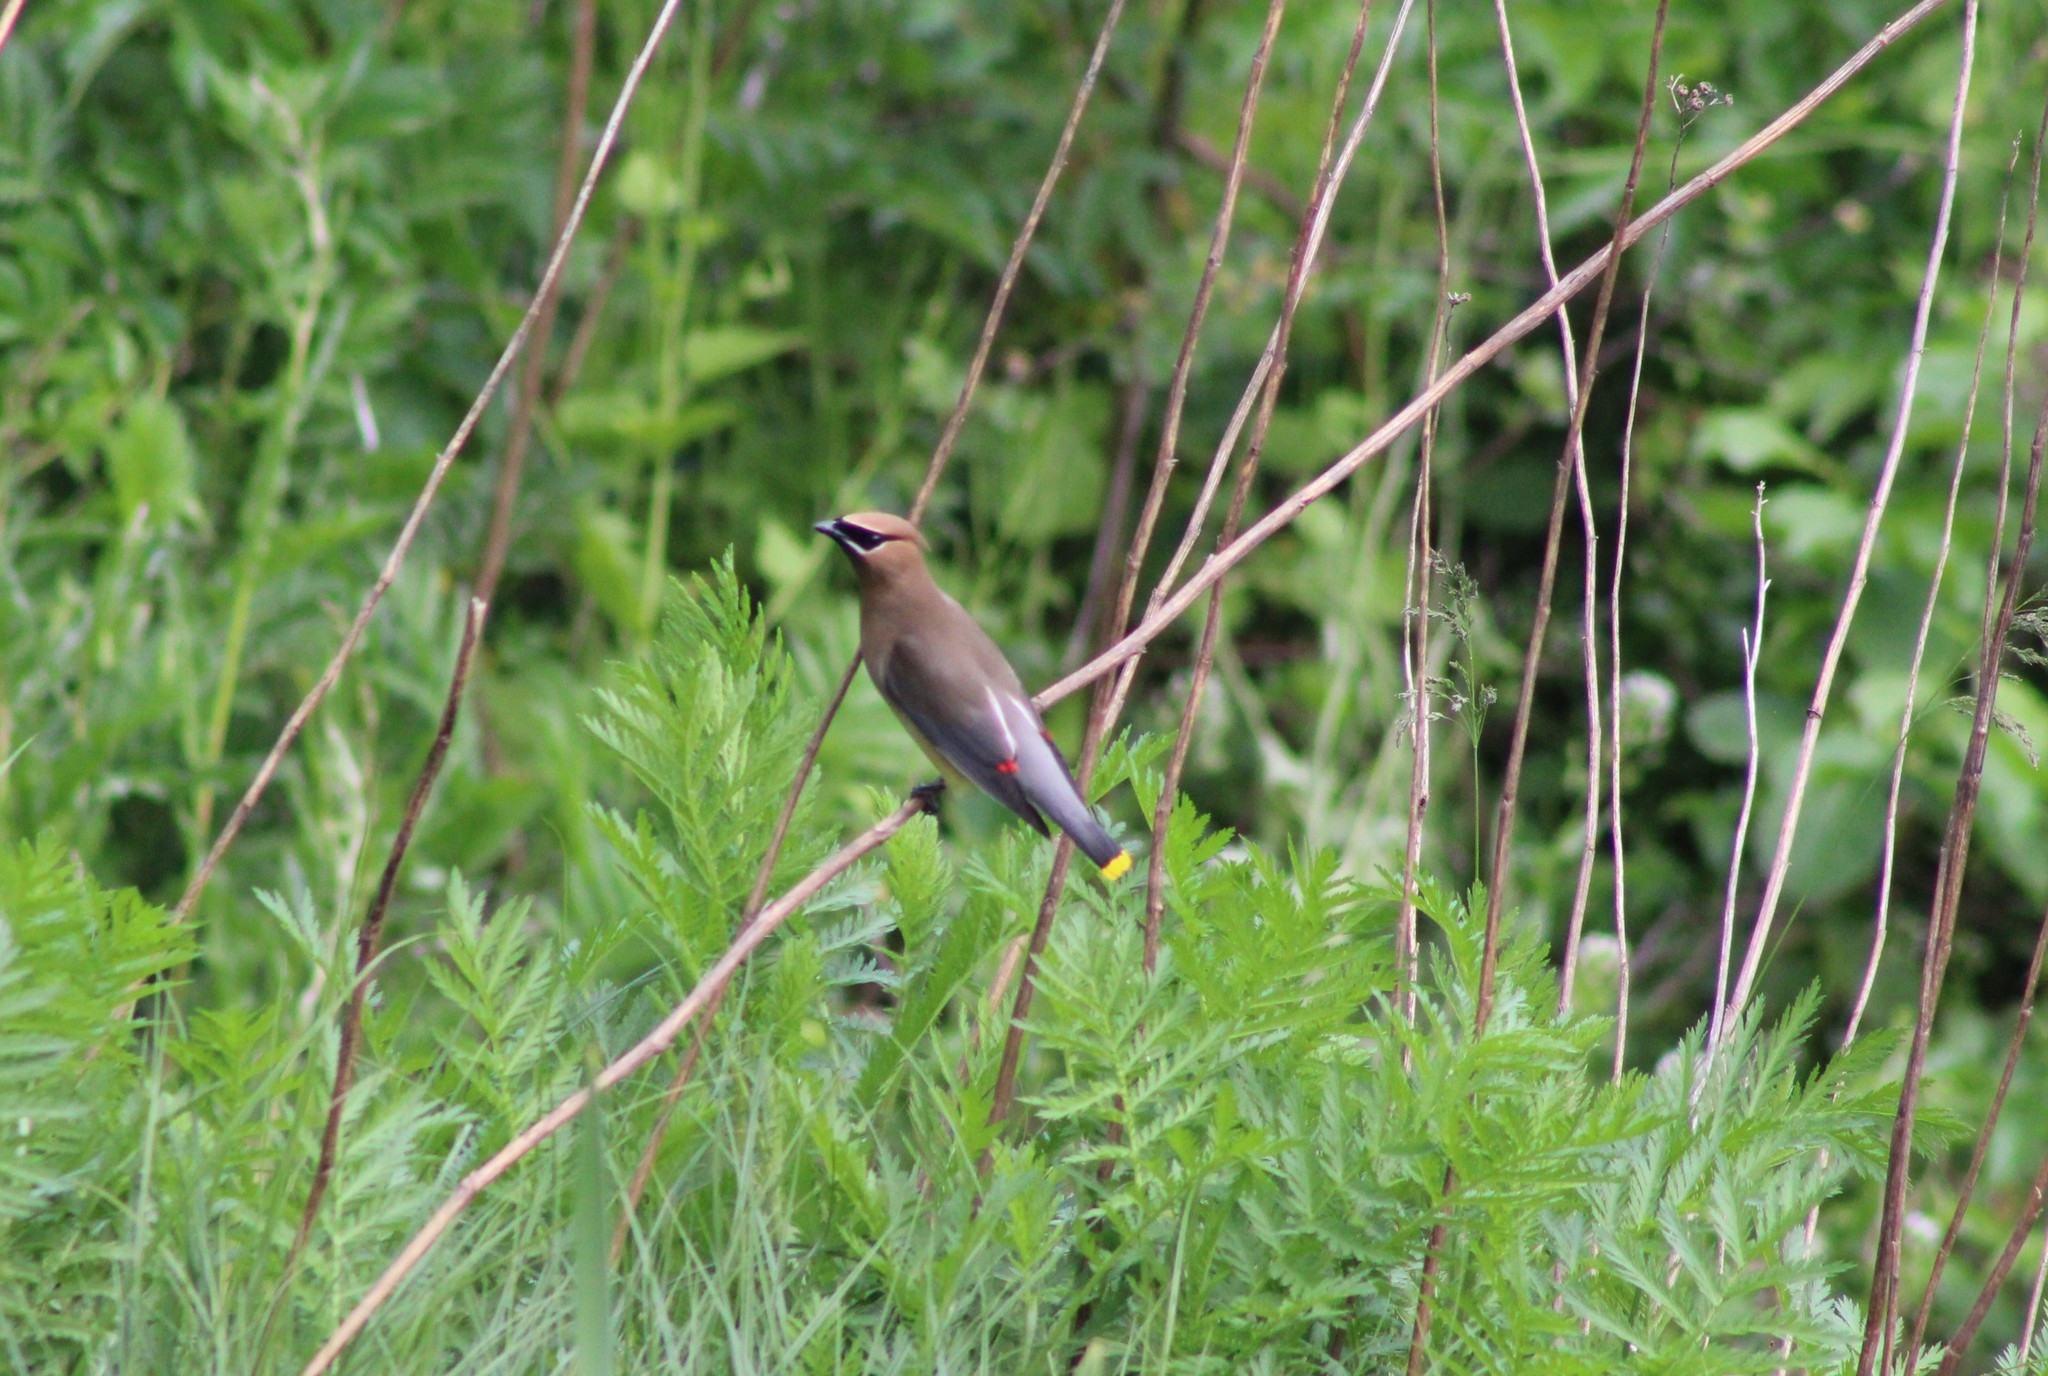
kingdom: Animalia
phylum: Chordata
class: Aves
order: Passeriformes
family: Bombycillidae
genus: Bombycilla
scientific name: Bombycilla cedrorum
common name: Cedar waxwing
